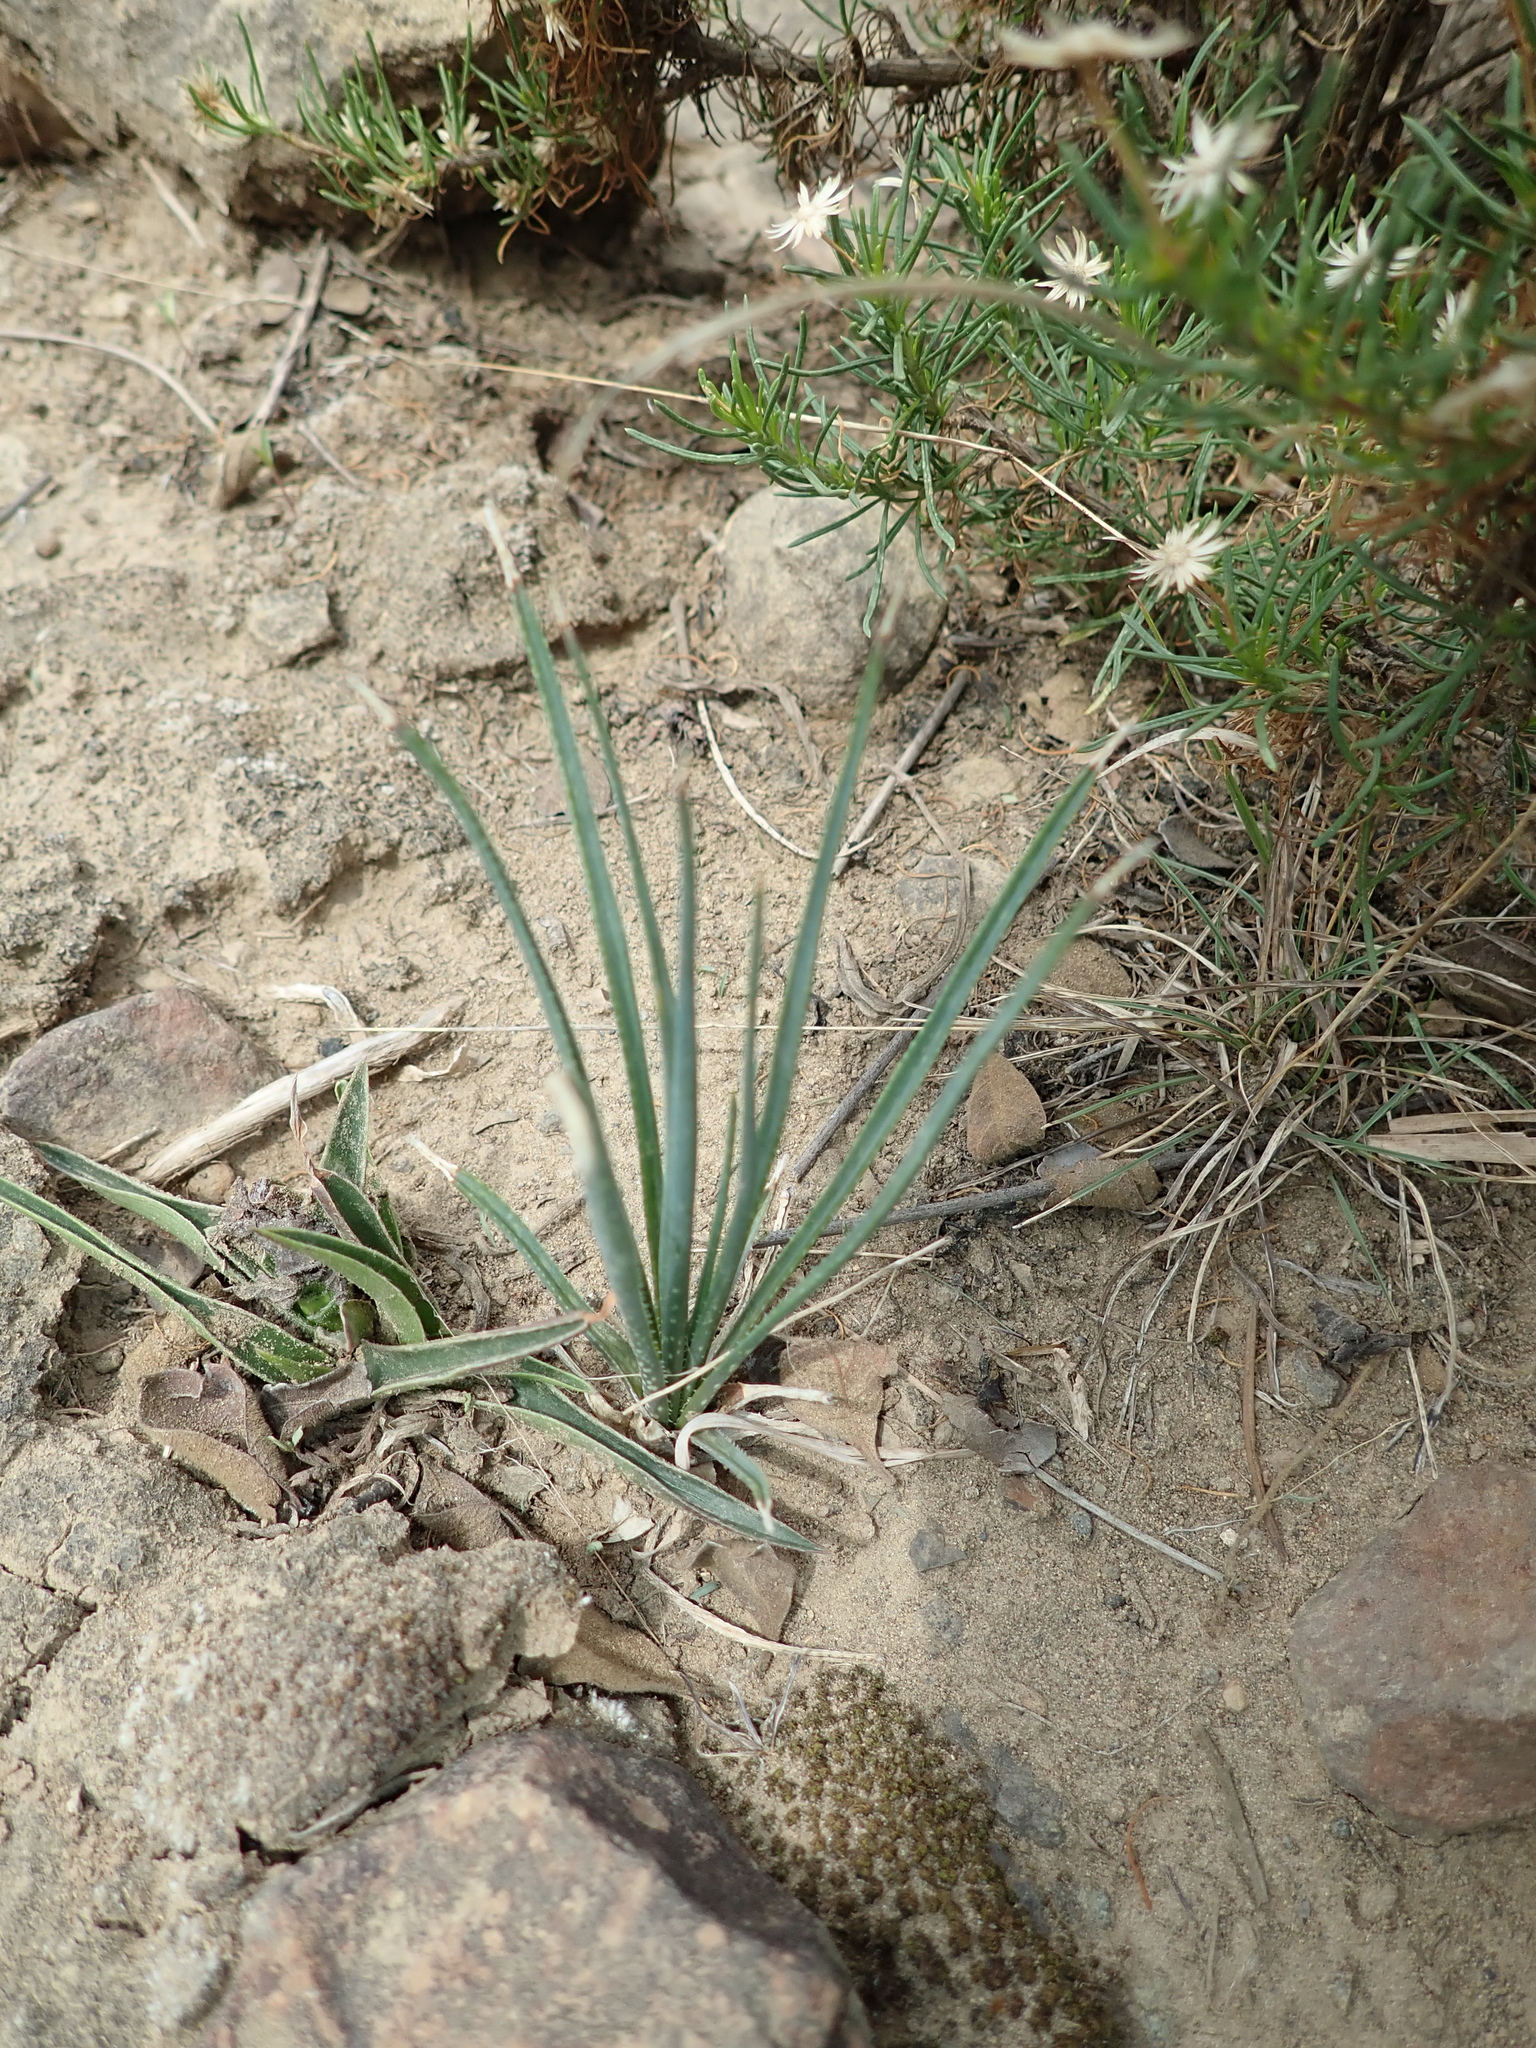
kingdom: Plantae
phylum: Tracheophyta
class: Liliopsida
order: Asparagales
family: Asphodelaceae
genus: Aloe
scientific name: Aloe minima
